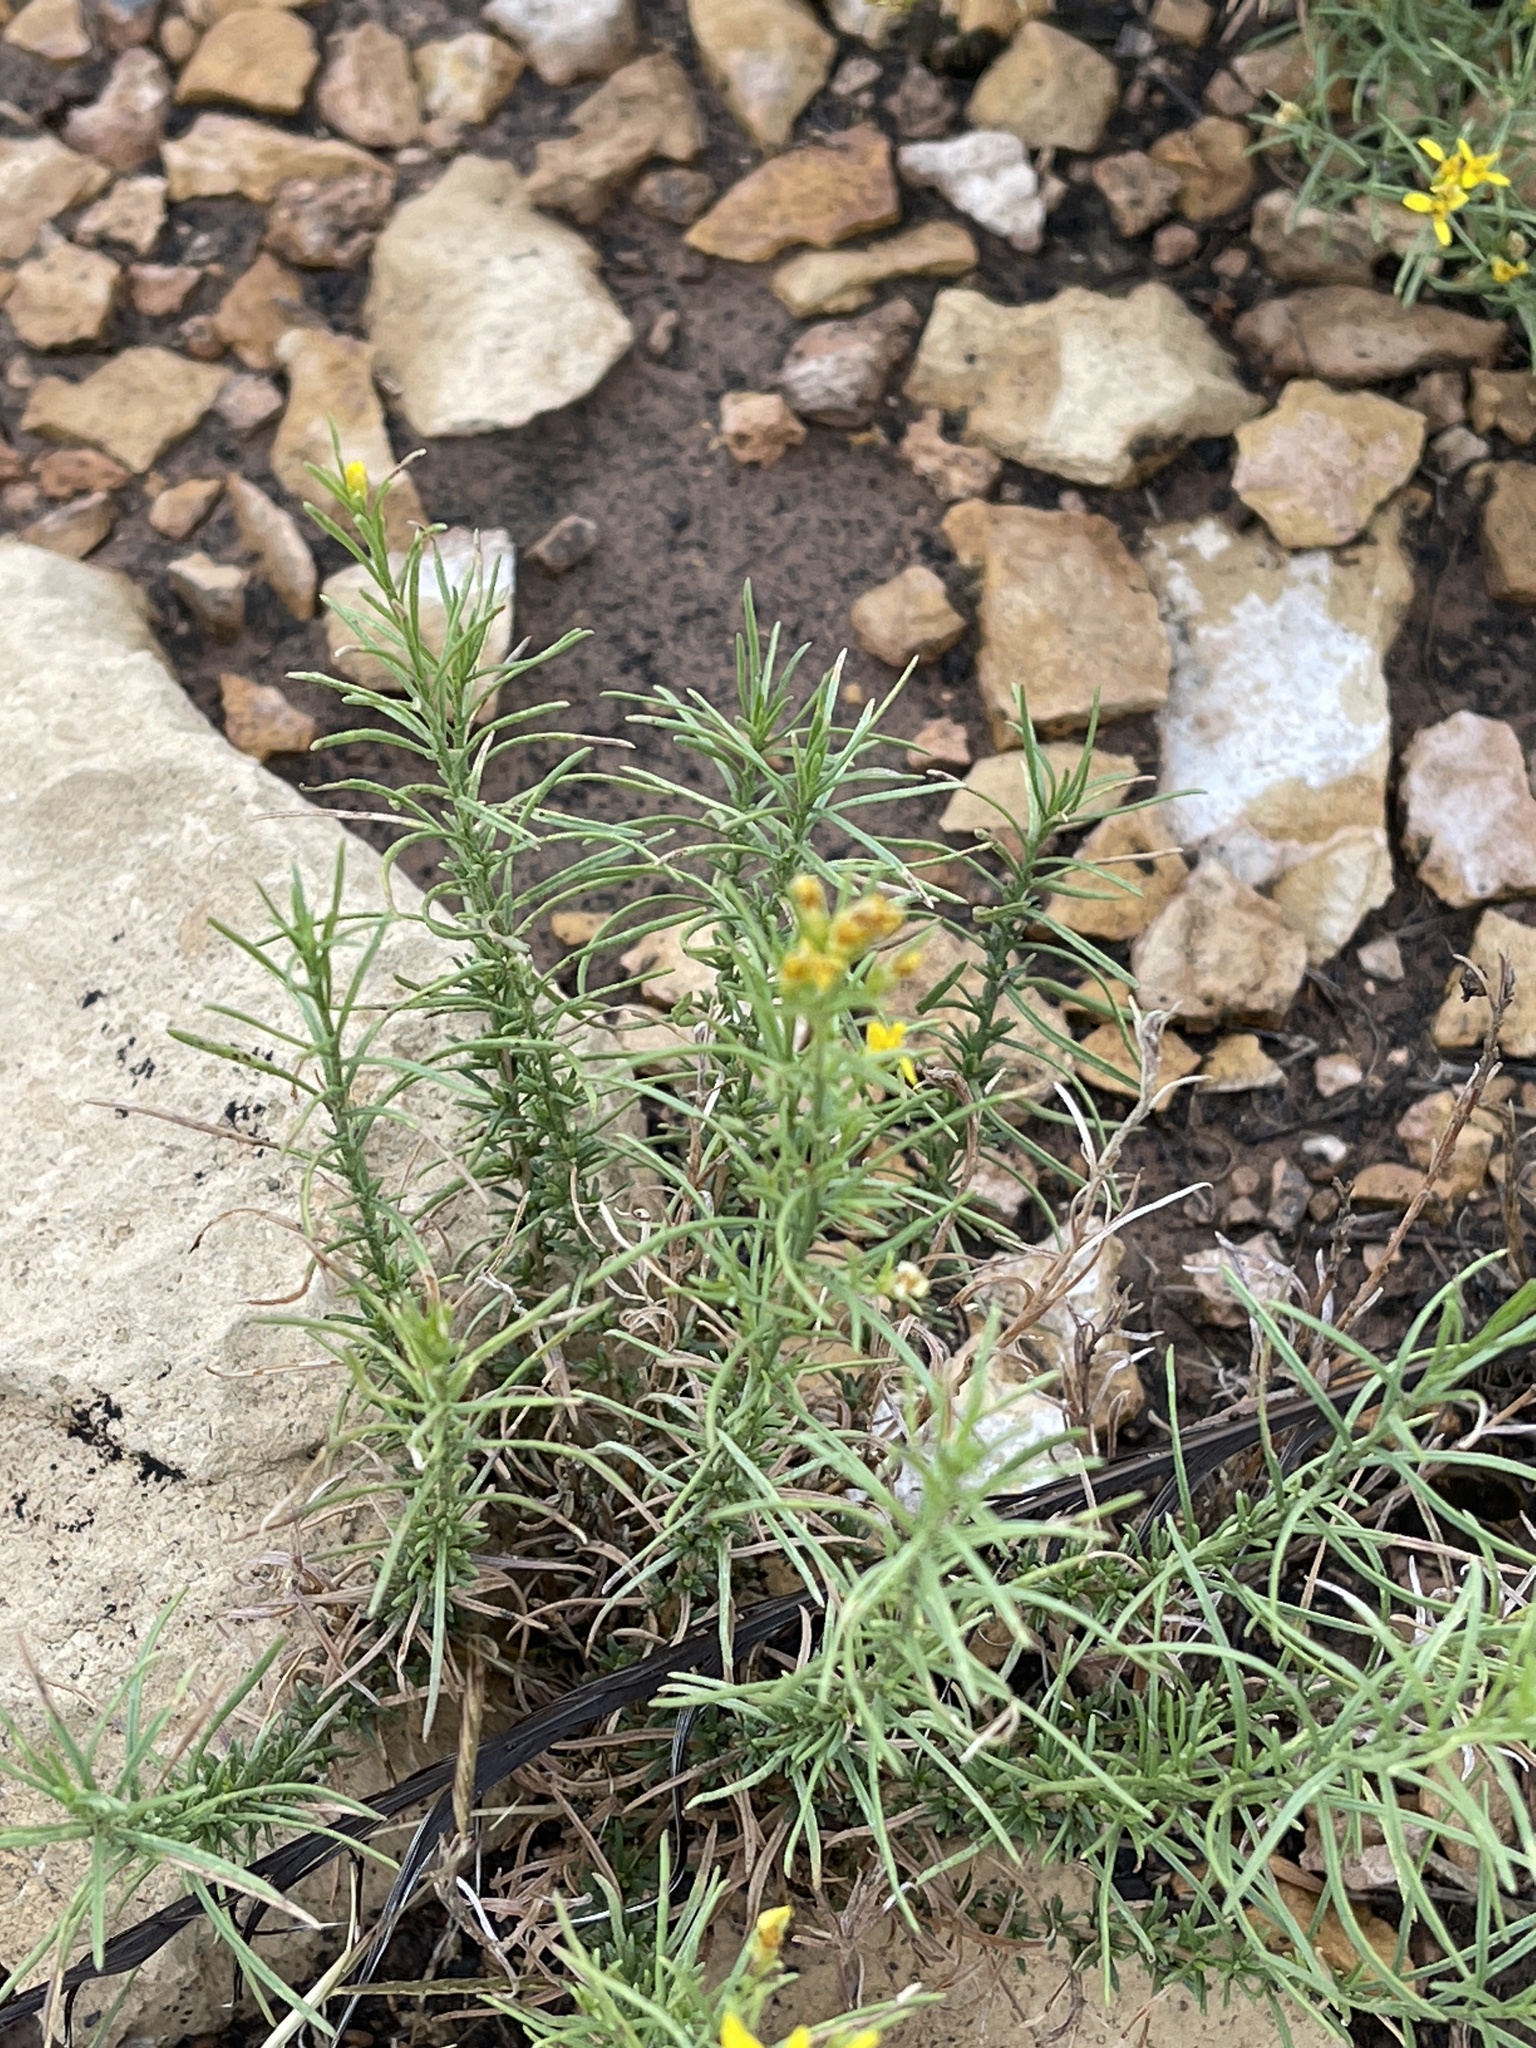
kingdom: Plantae
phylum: Tracheophyta
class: Magnoliopsida
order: Asterales
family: Asteraceae
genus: Gutierrezia
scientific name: Gutierrezia sarothrae
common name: Broom snakeweed
